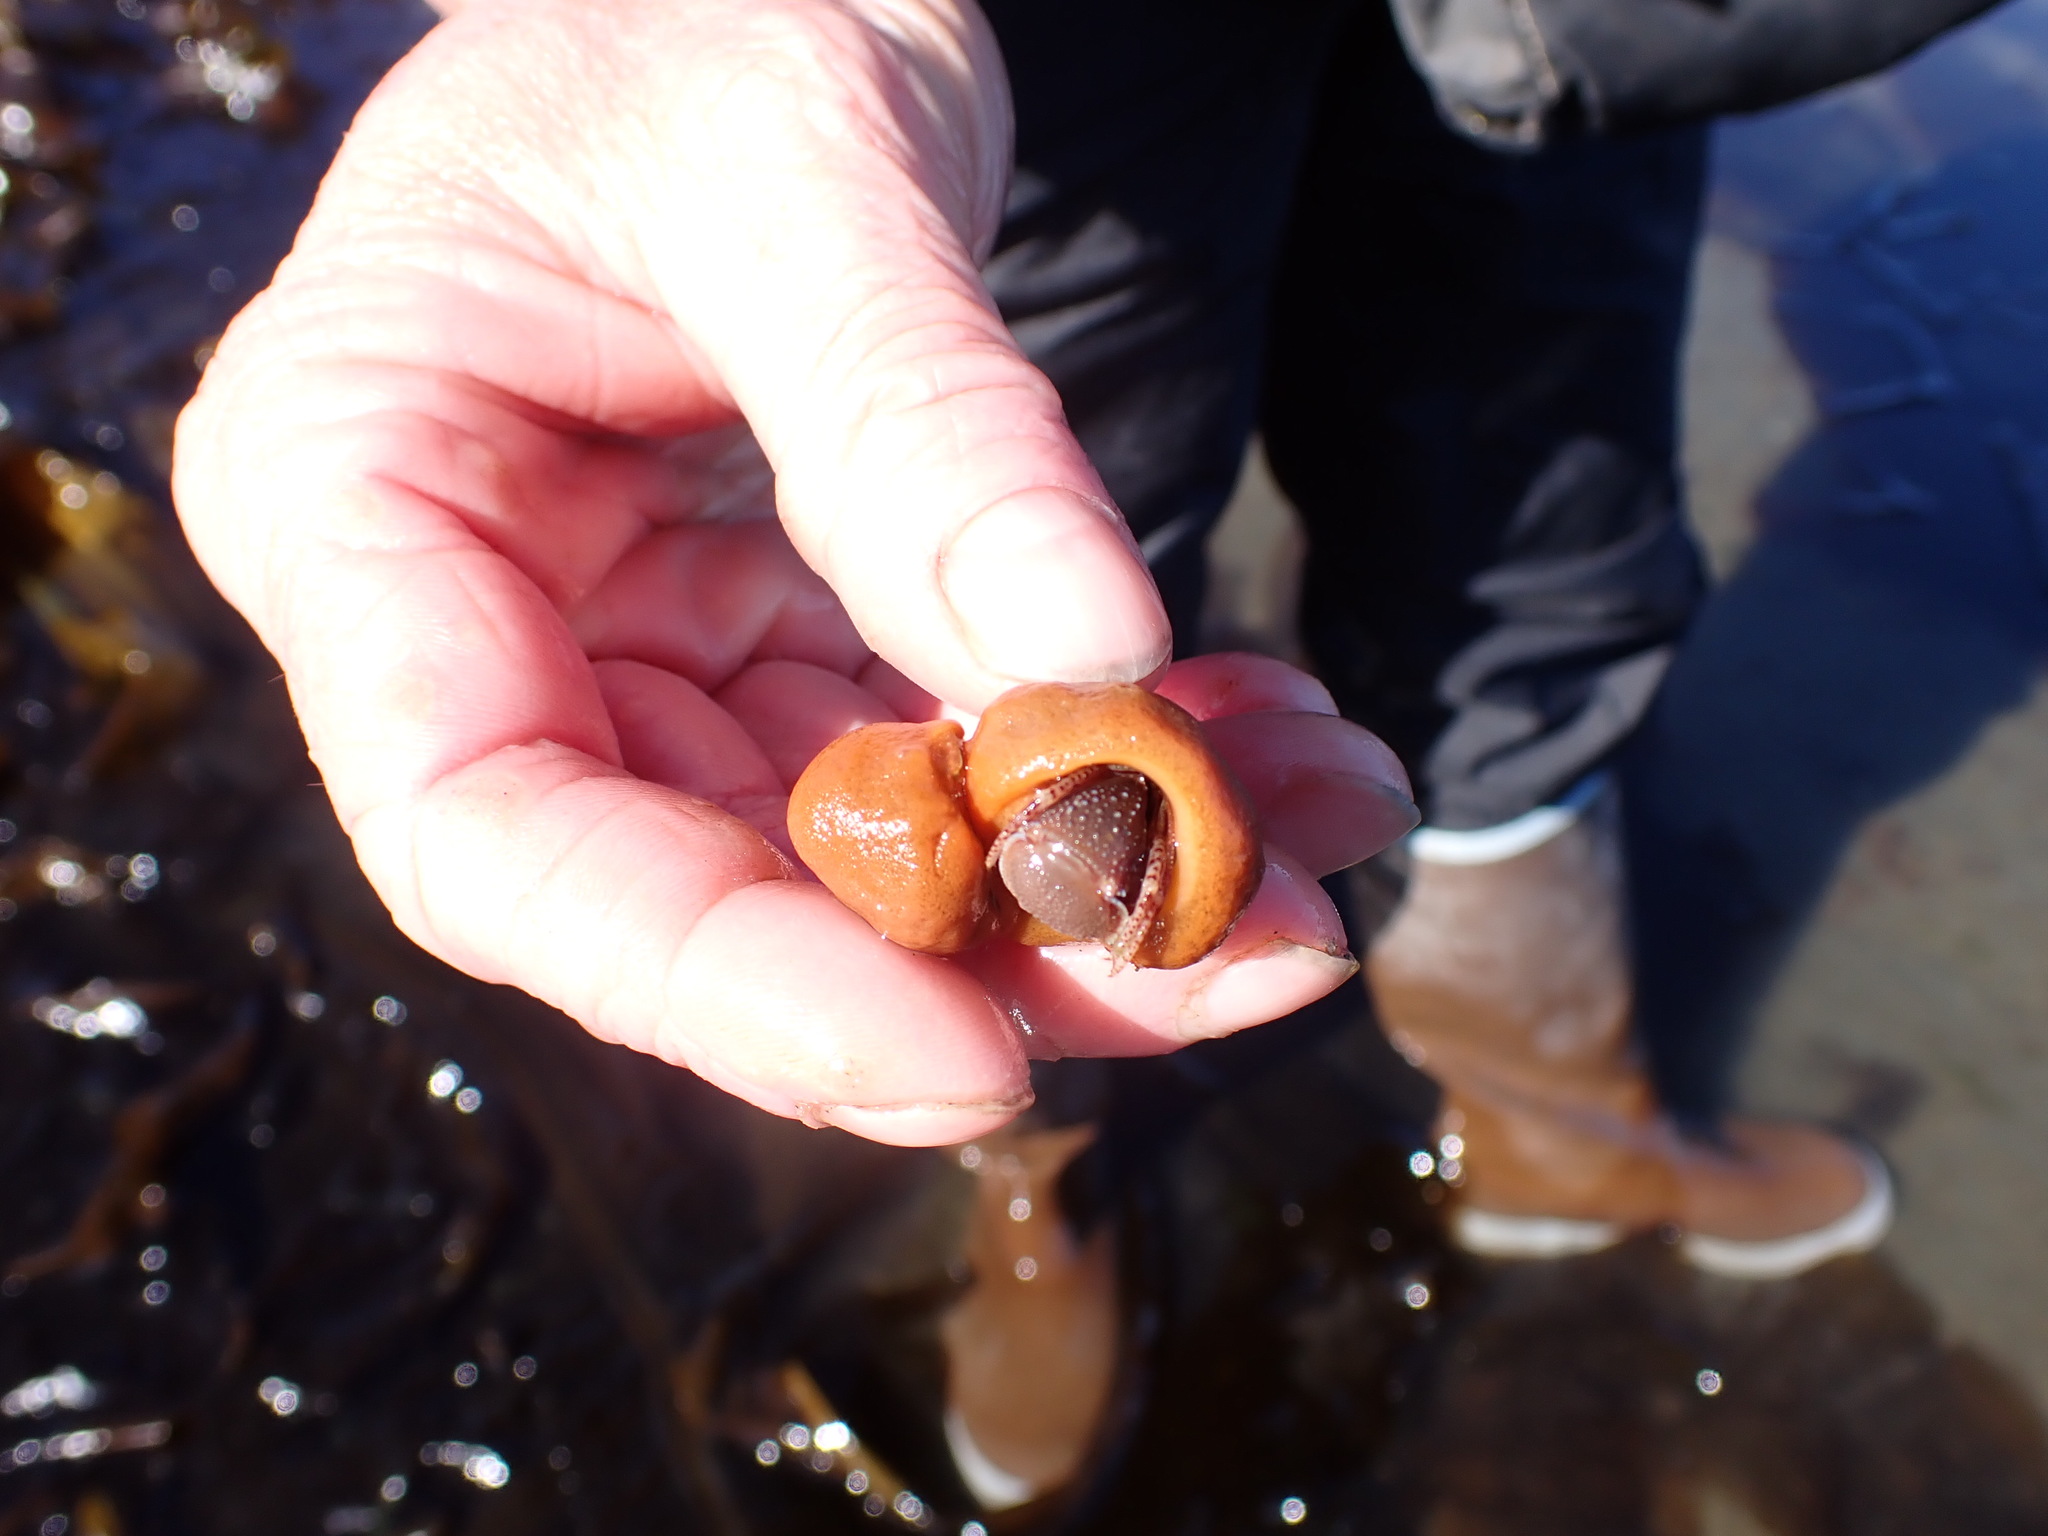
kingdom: Animalia
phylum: Arthropoda
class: Malacostraca
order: Decapoda
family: Paguridae
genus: Elassochirus
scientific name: Elassochirus tenuimanus
